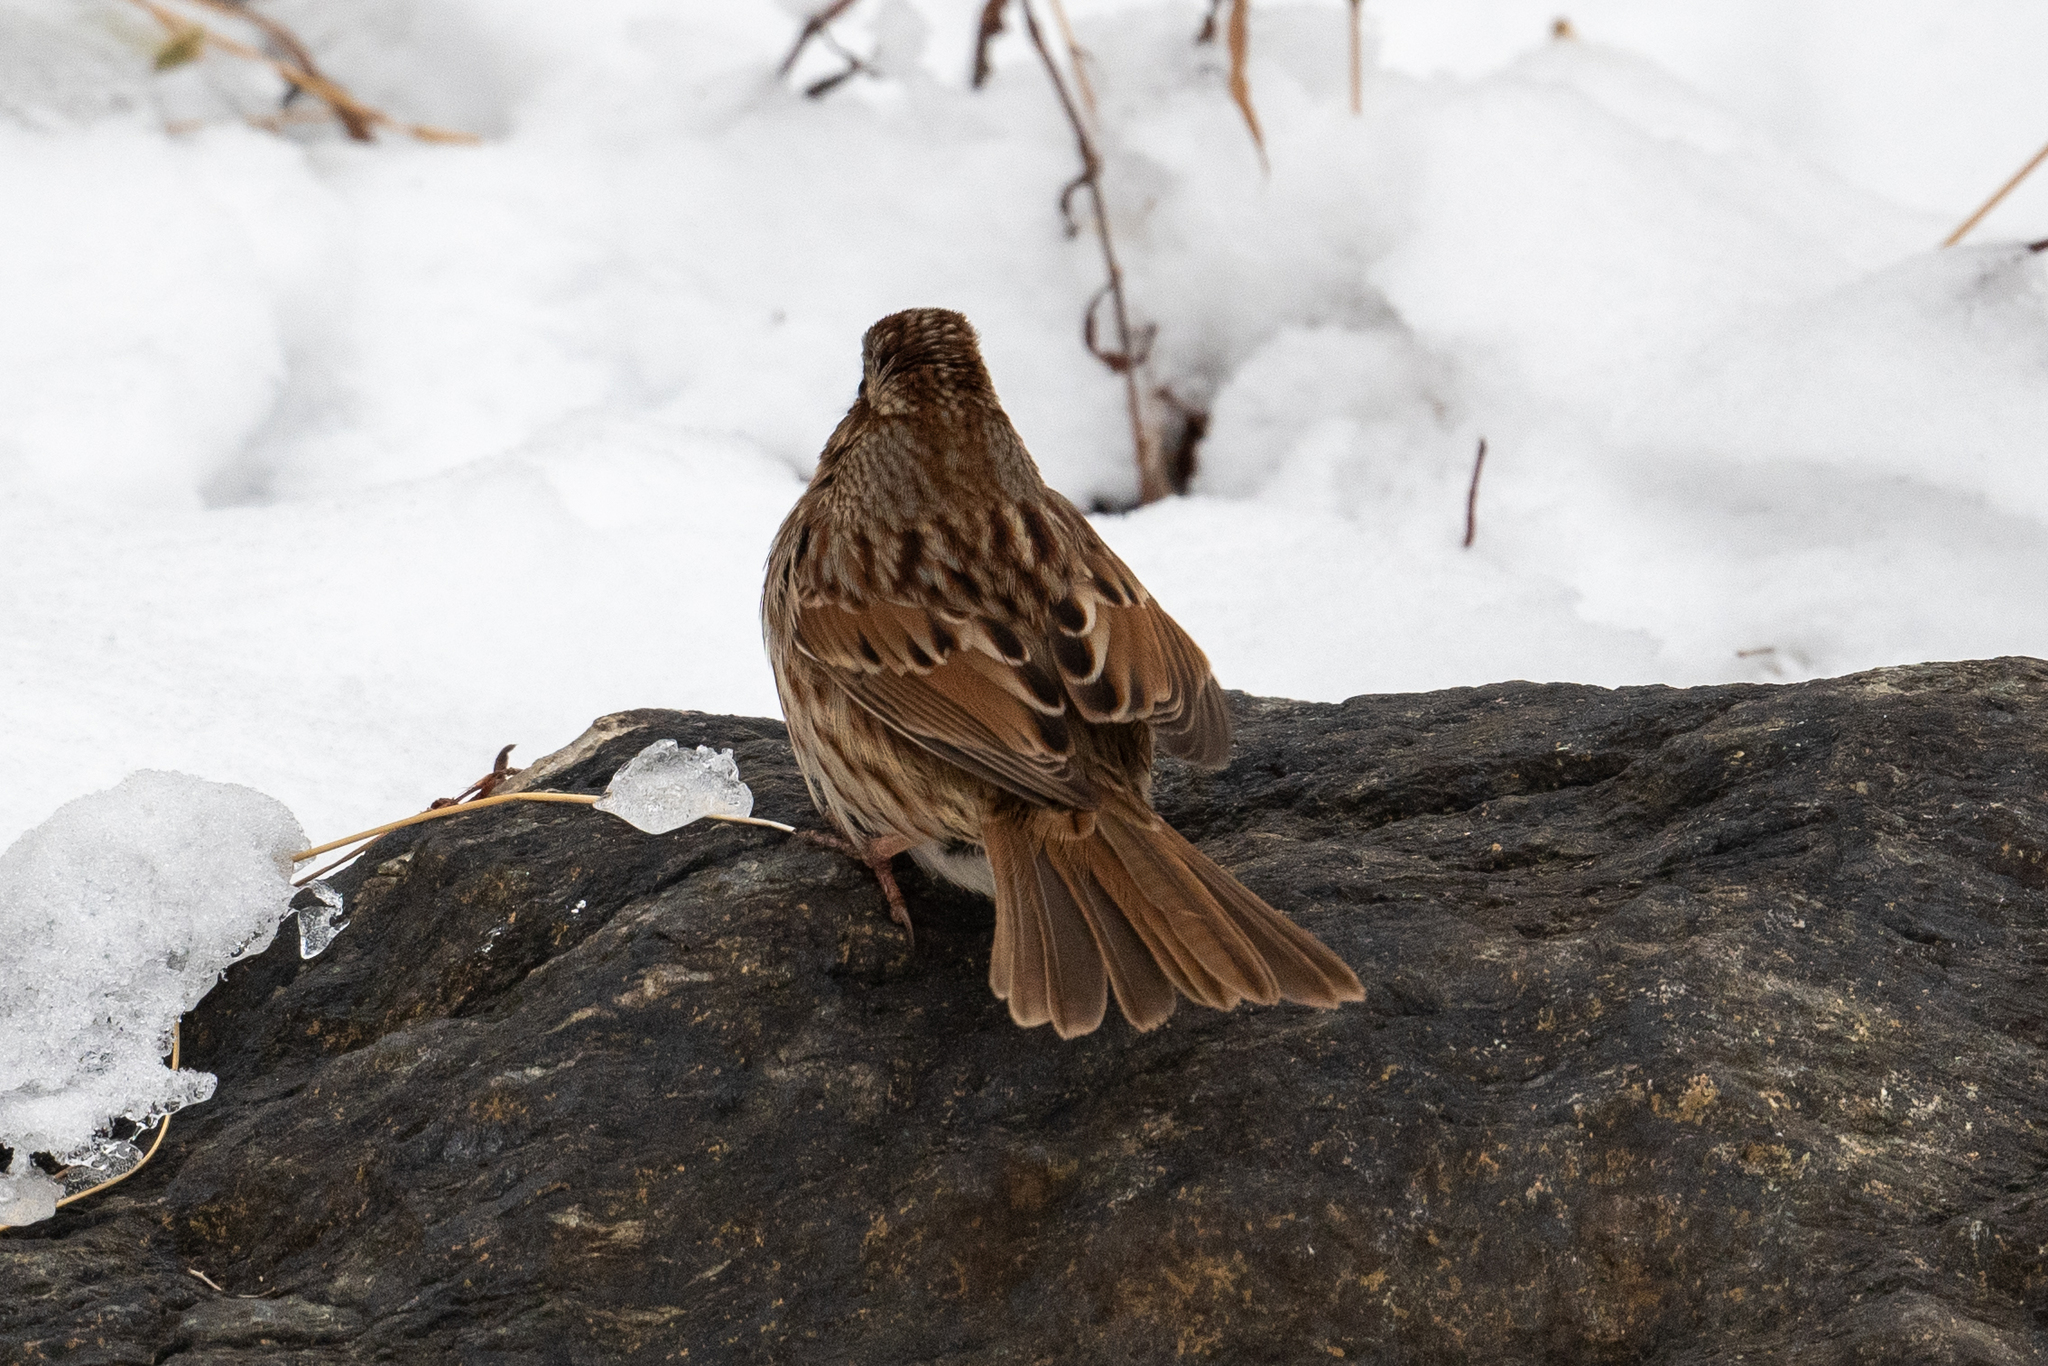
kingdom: Animalia
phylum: Chordata
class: Aves
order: Passeriformes
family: Passerellidae
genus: Melospiza
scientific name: Melospiza melodia
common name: Song sparrow
